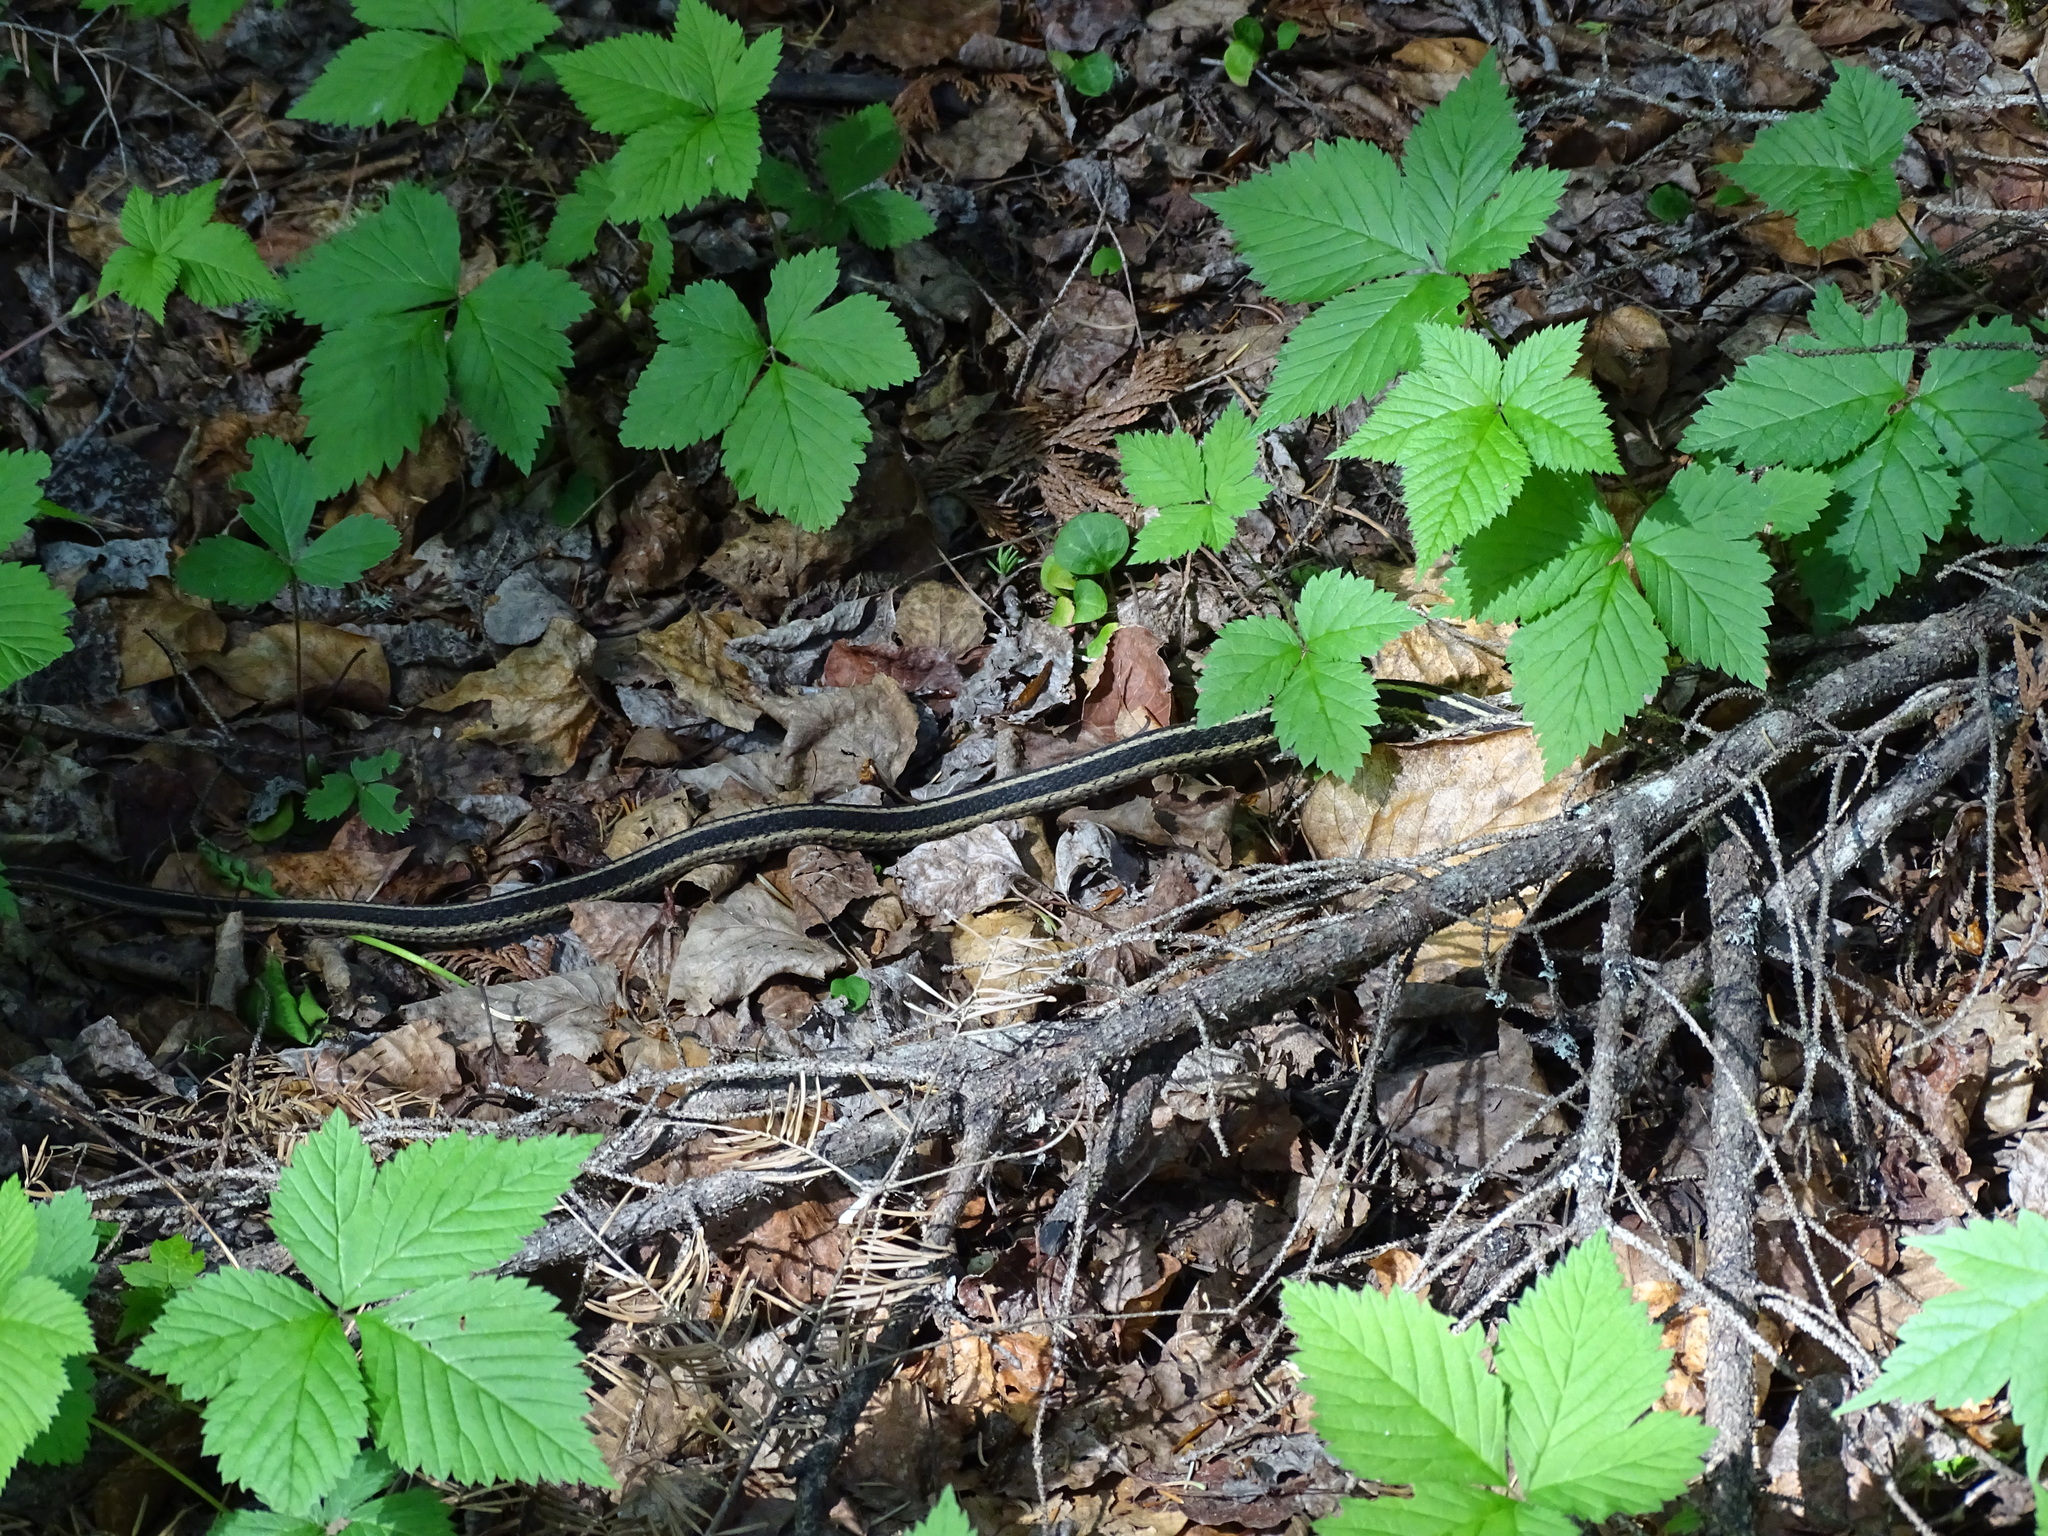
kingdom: Animalia
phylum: Chordata
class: Squamata
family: Colubridae
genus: Thamnophis
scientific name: Thamnophis sirtalis
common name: Common garter snake
